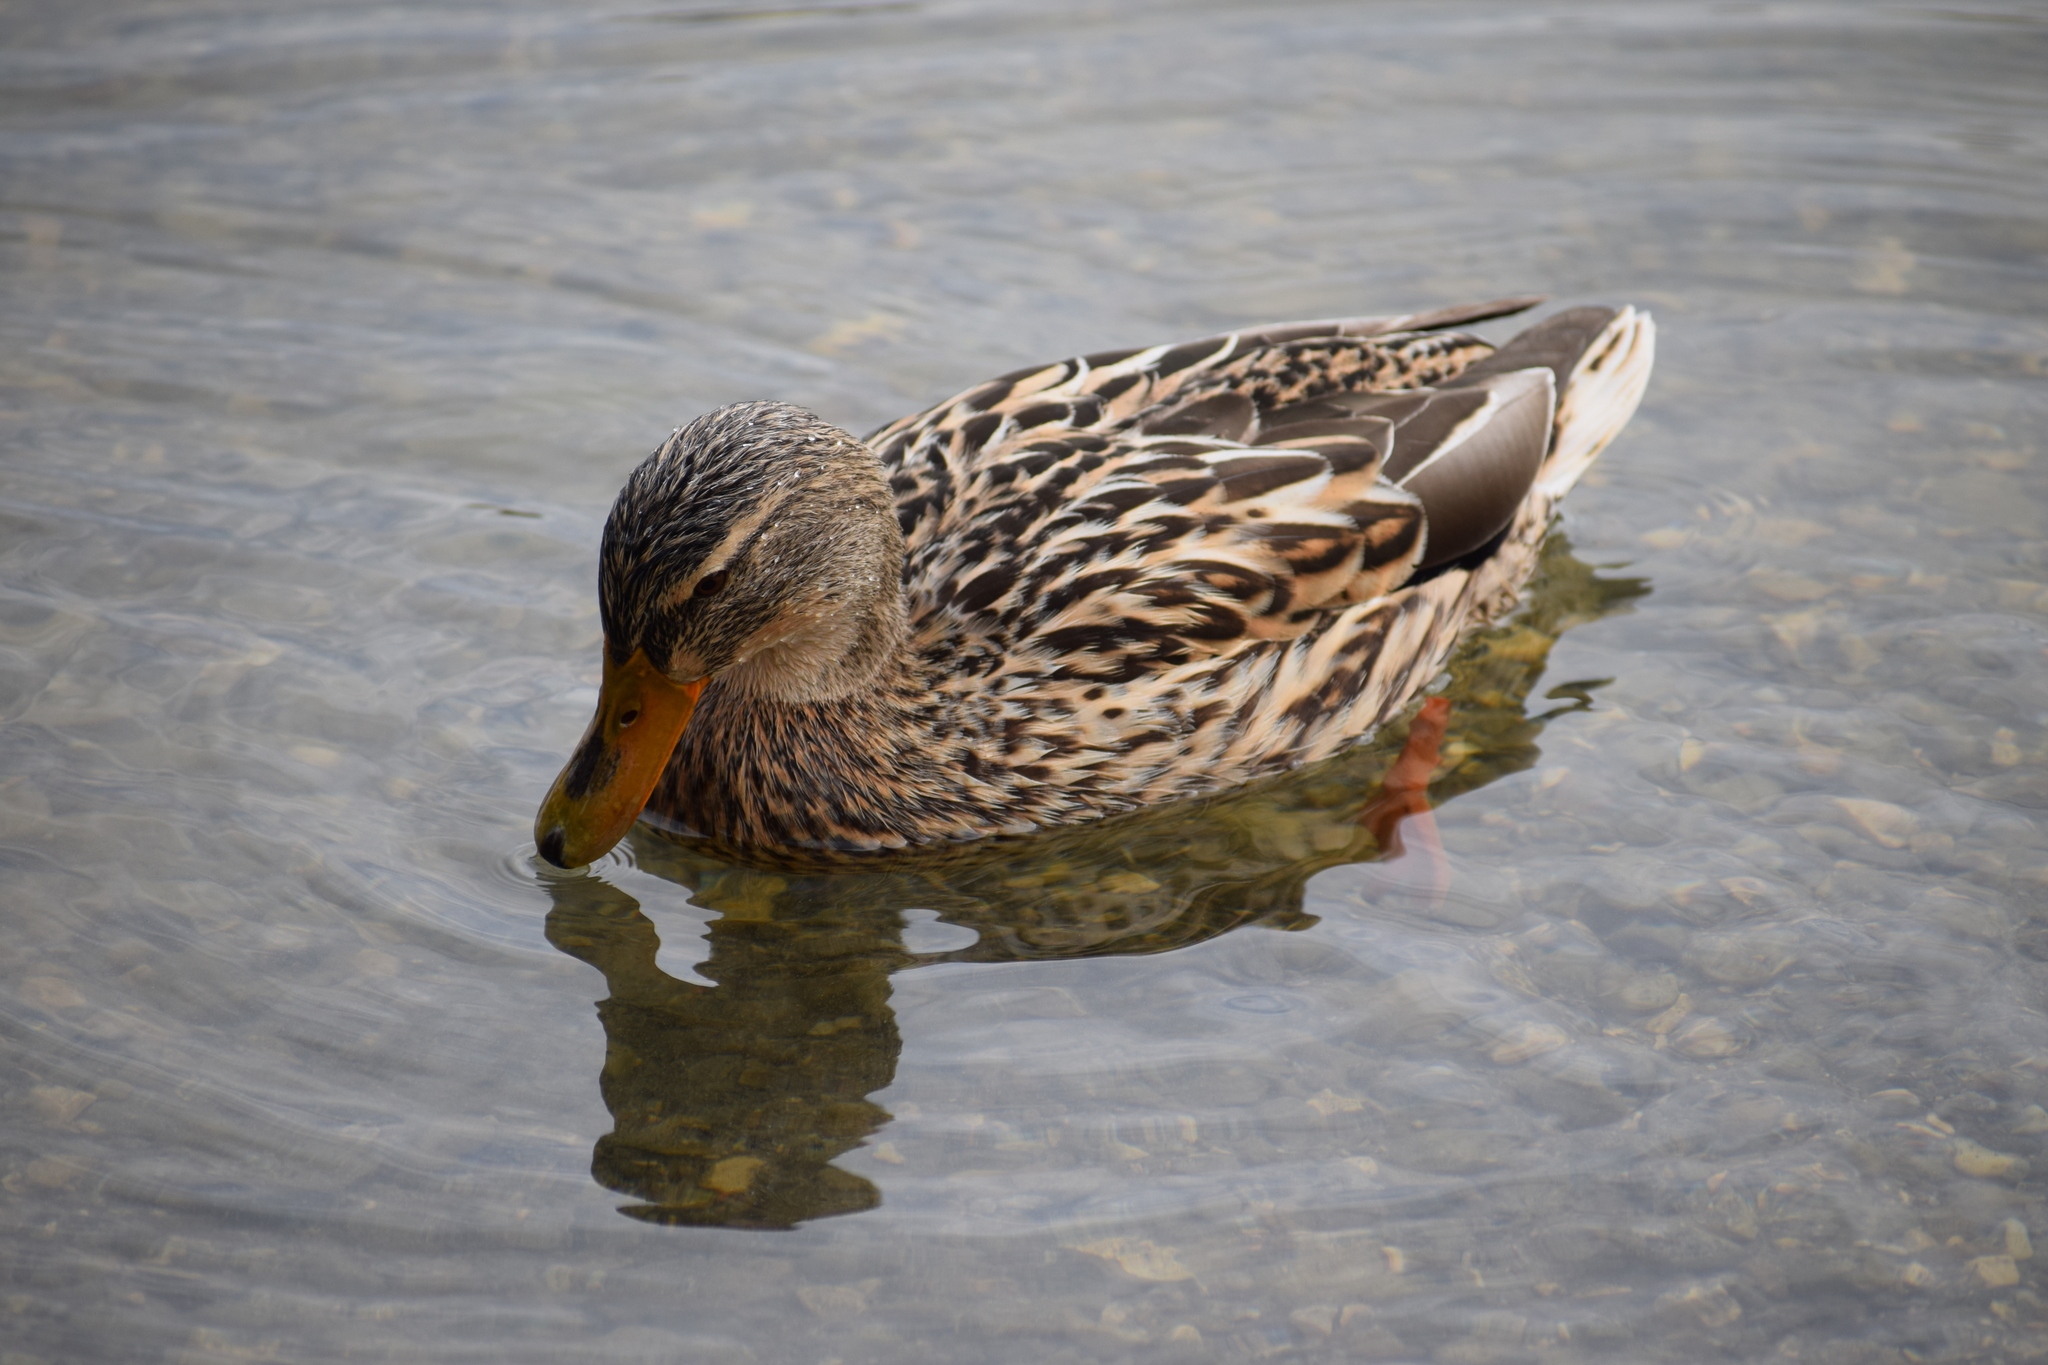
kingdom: Animalia
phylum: Chordata
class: Aves
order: Anseriformes
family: Anatidae
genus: Anas
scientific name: Anas platyrhynchos
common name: Mallard
